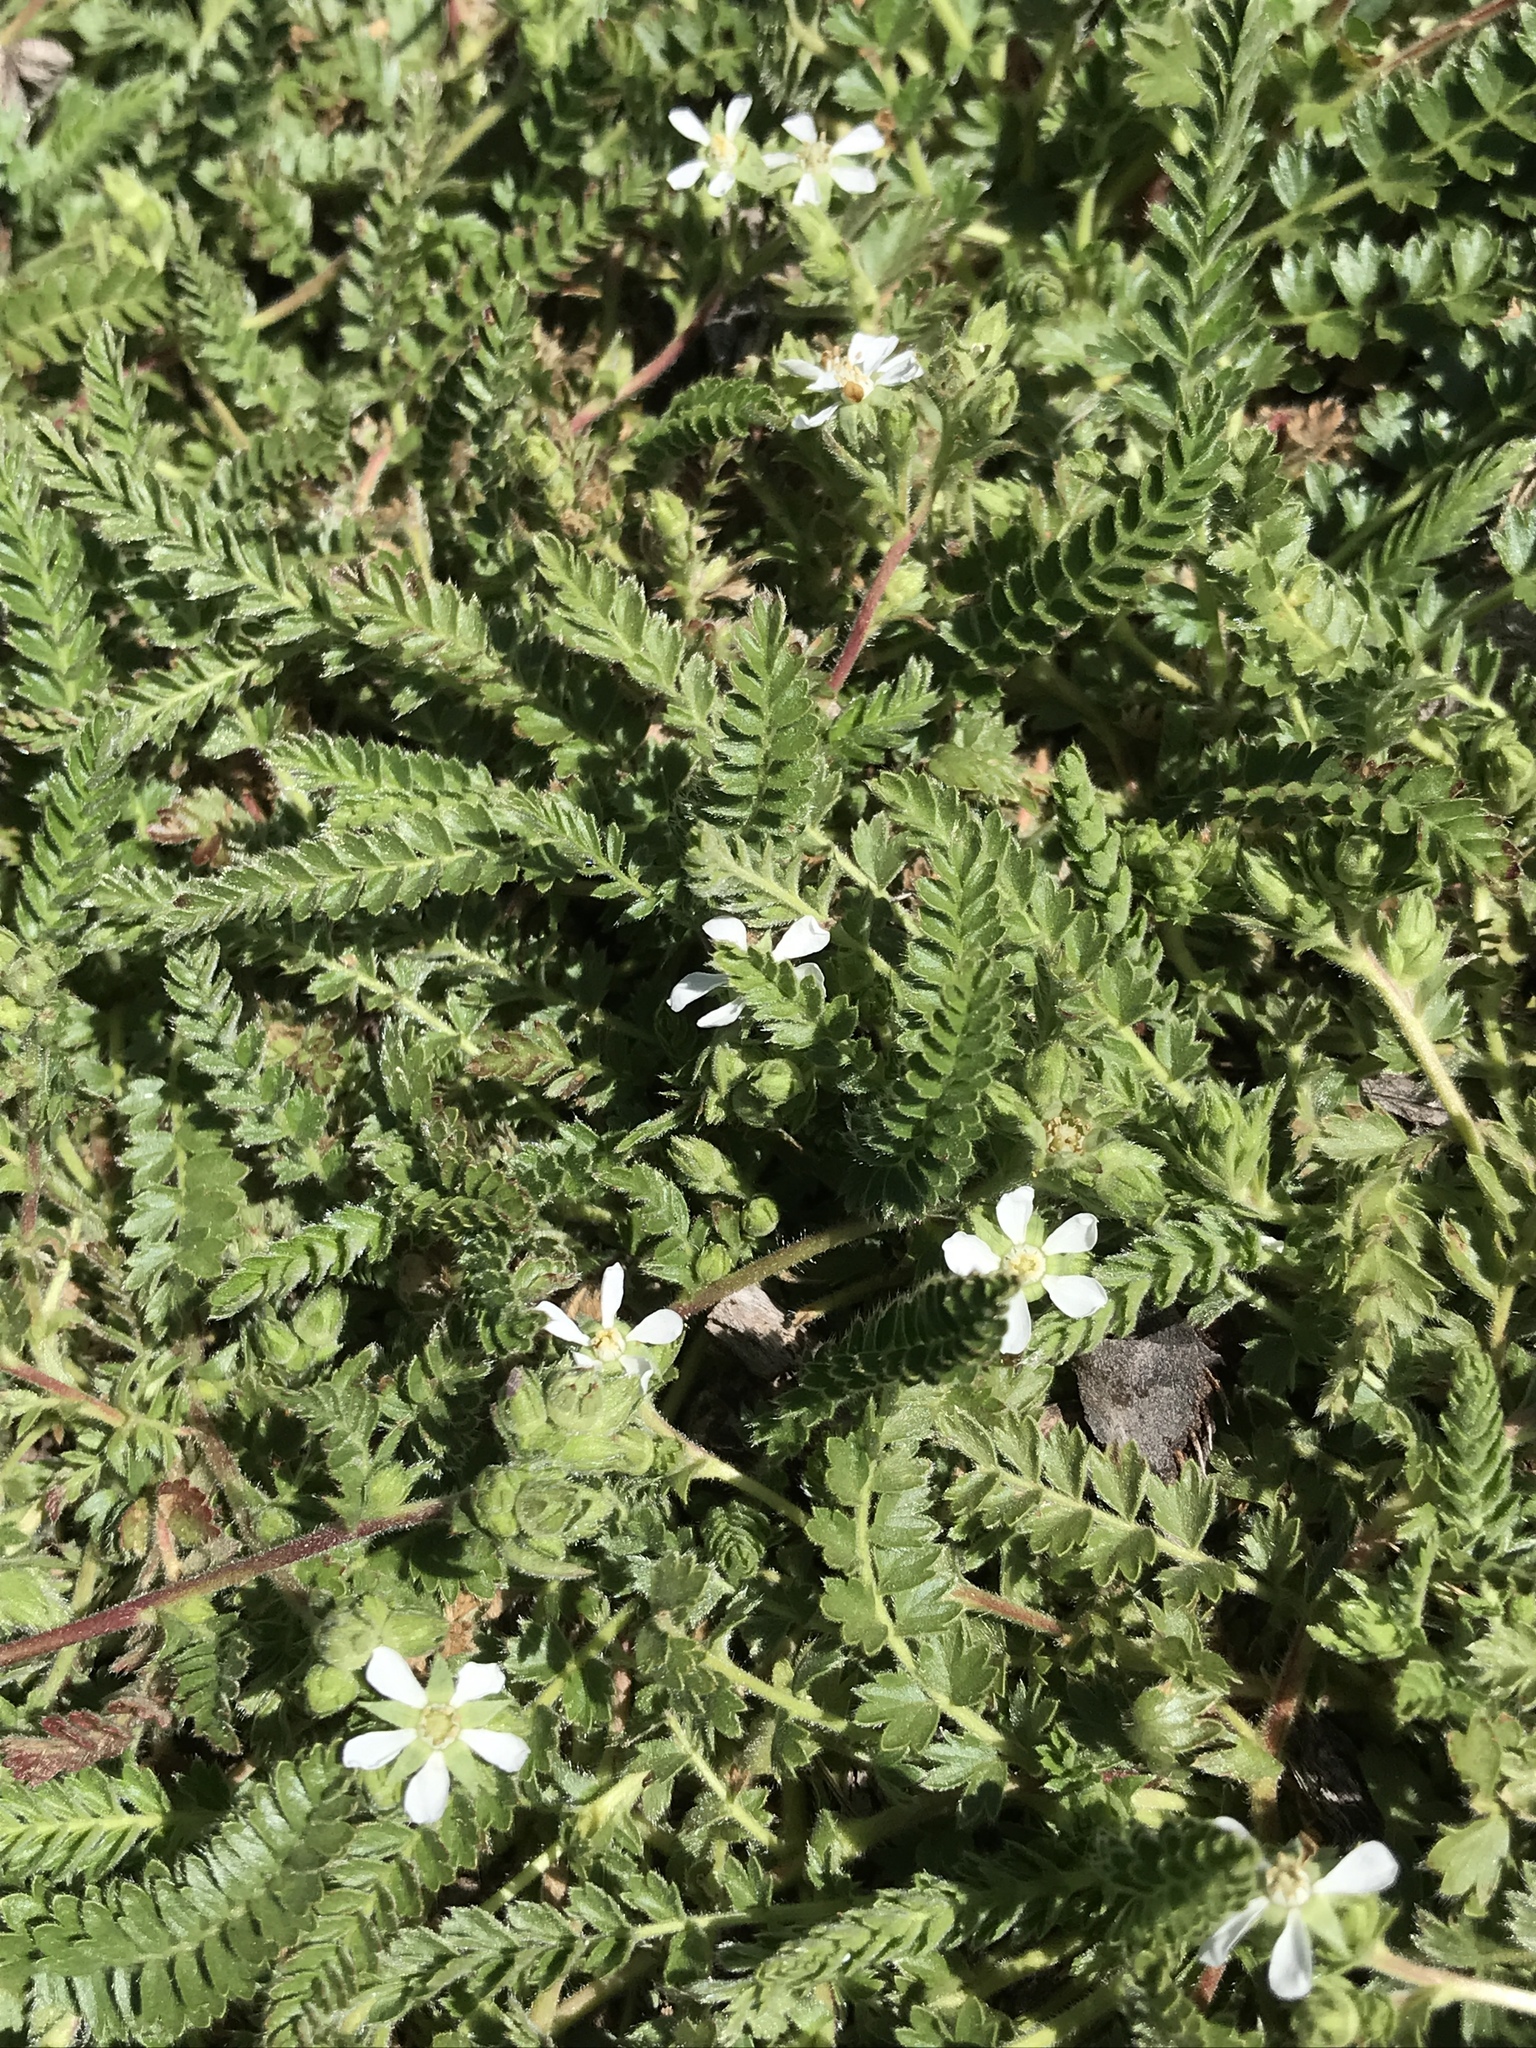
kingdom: Plantae
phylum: Tracheophyta
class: Magnoliopsida
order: Rosales
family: Rosaceae
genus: Potentilla
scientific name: Potentilla clevelandii
